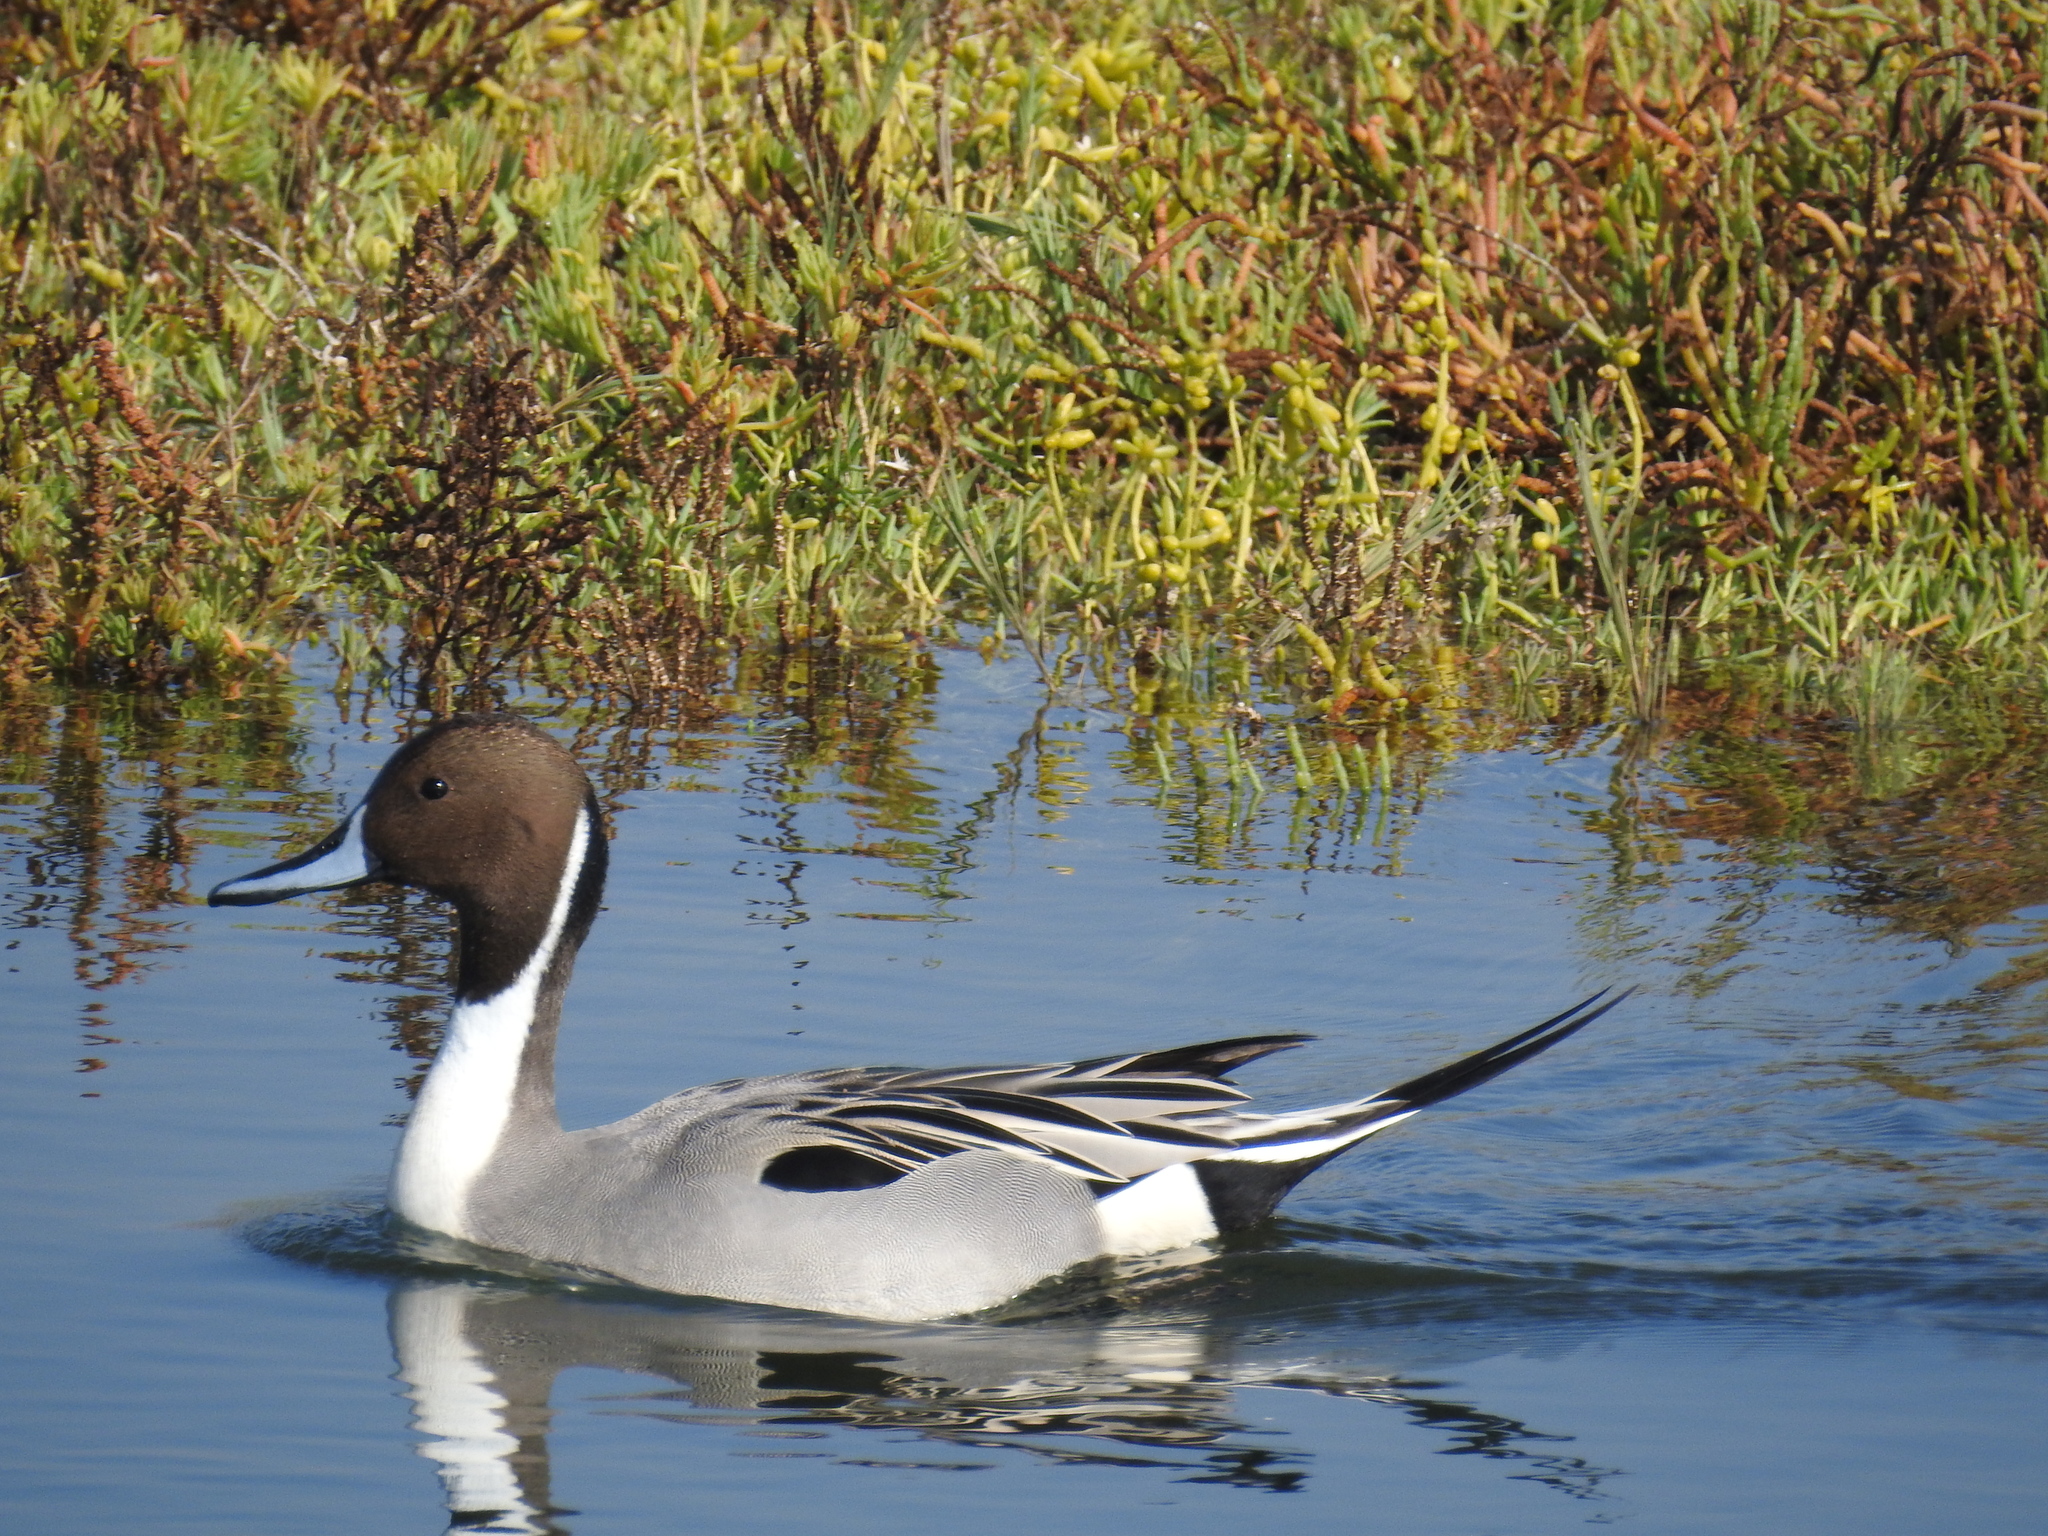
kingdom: Animalia
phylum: Chordata
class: Aves
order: Anseriformes
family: Anatidae
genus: Anas
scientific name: Anas acuta
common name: Northern pintail
